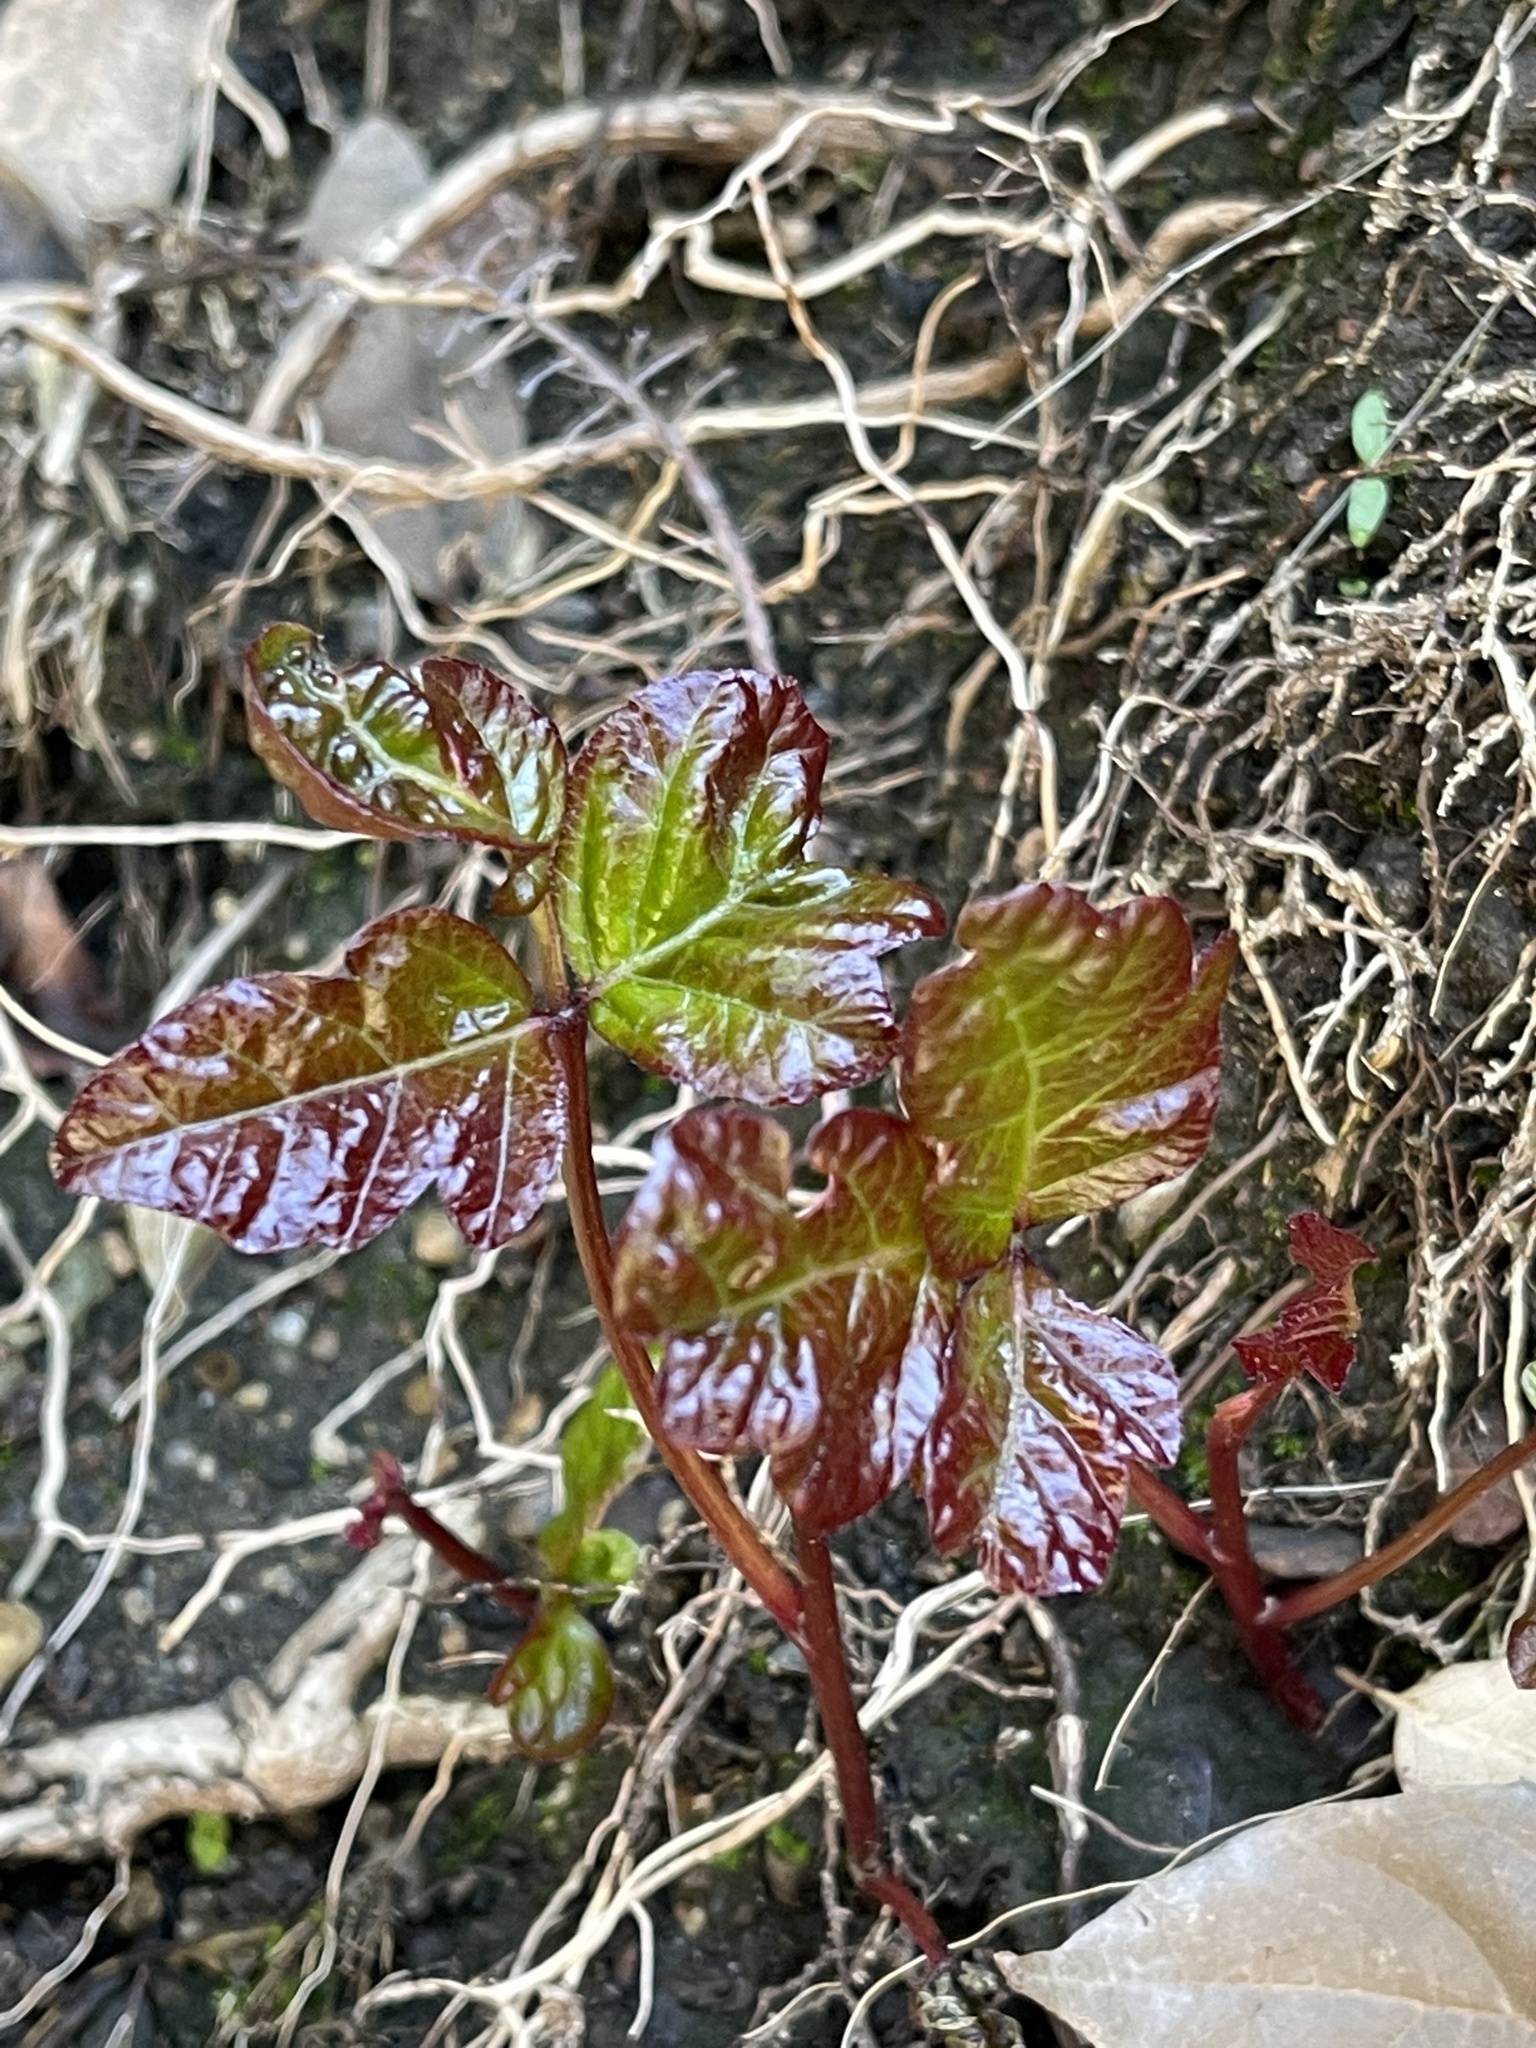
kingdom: Plantae
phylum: Tracheophyta
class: Magnoliopsida
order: Sapindales
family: Anacardiaceae
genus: Toxicodendron
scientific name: Toxicodendron diversilobum
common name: Pacific poison-oak
